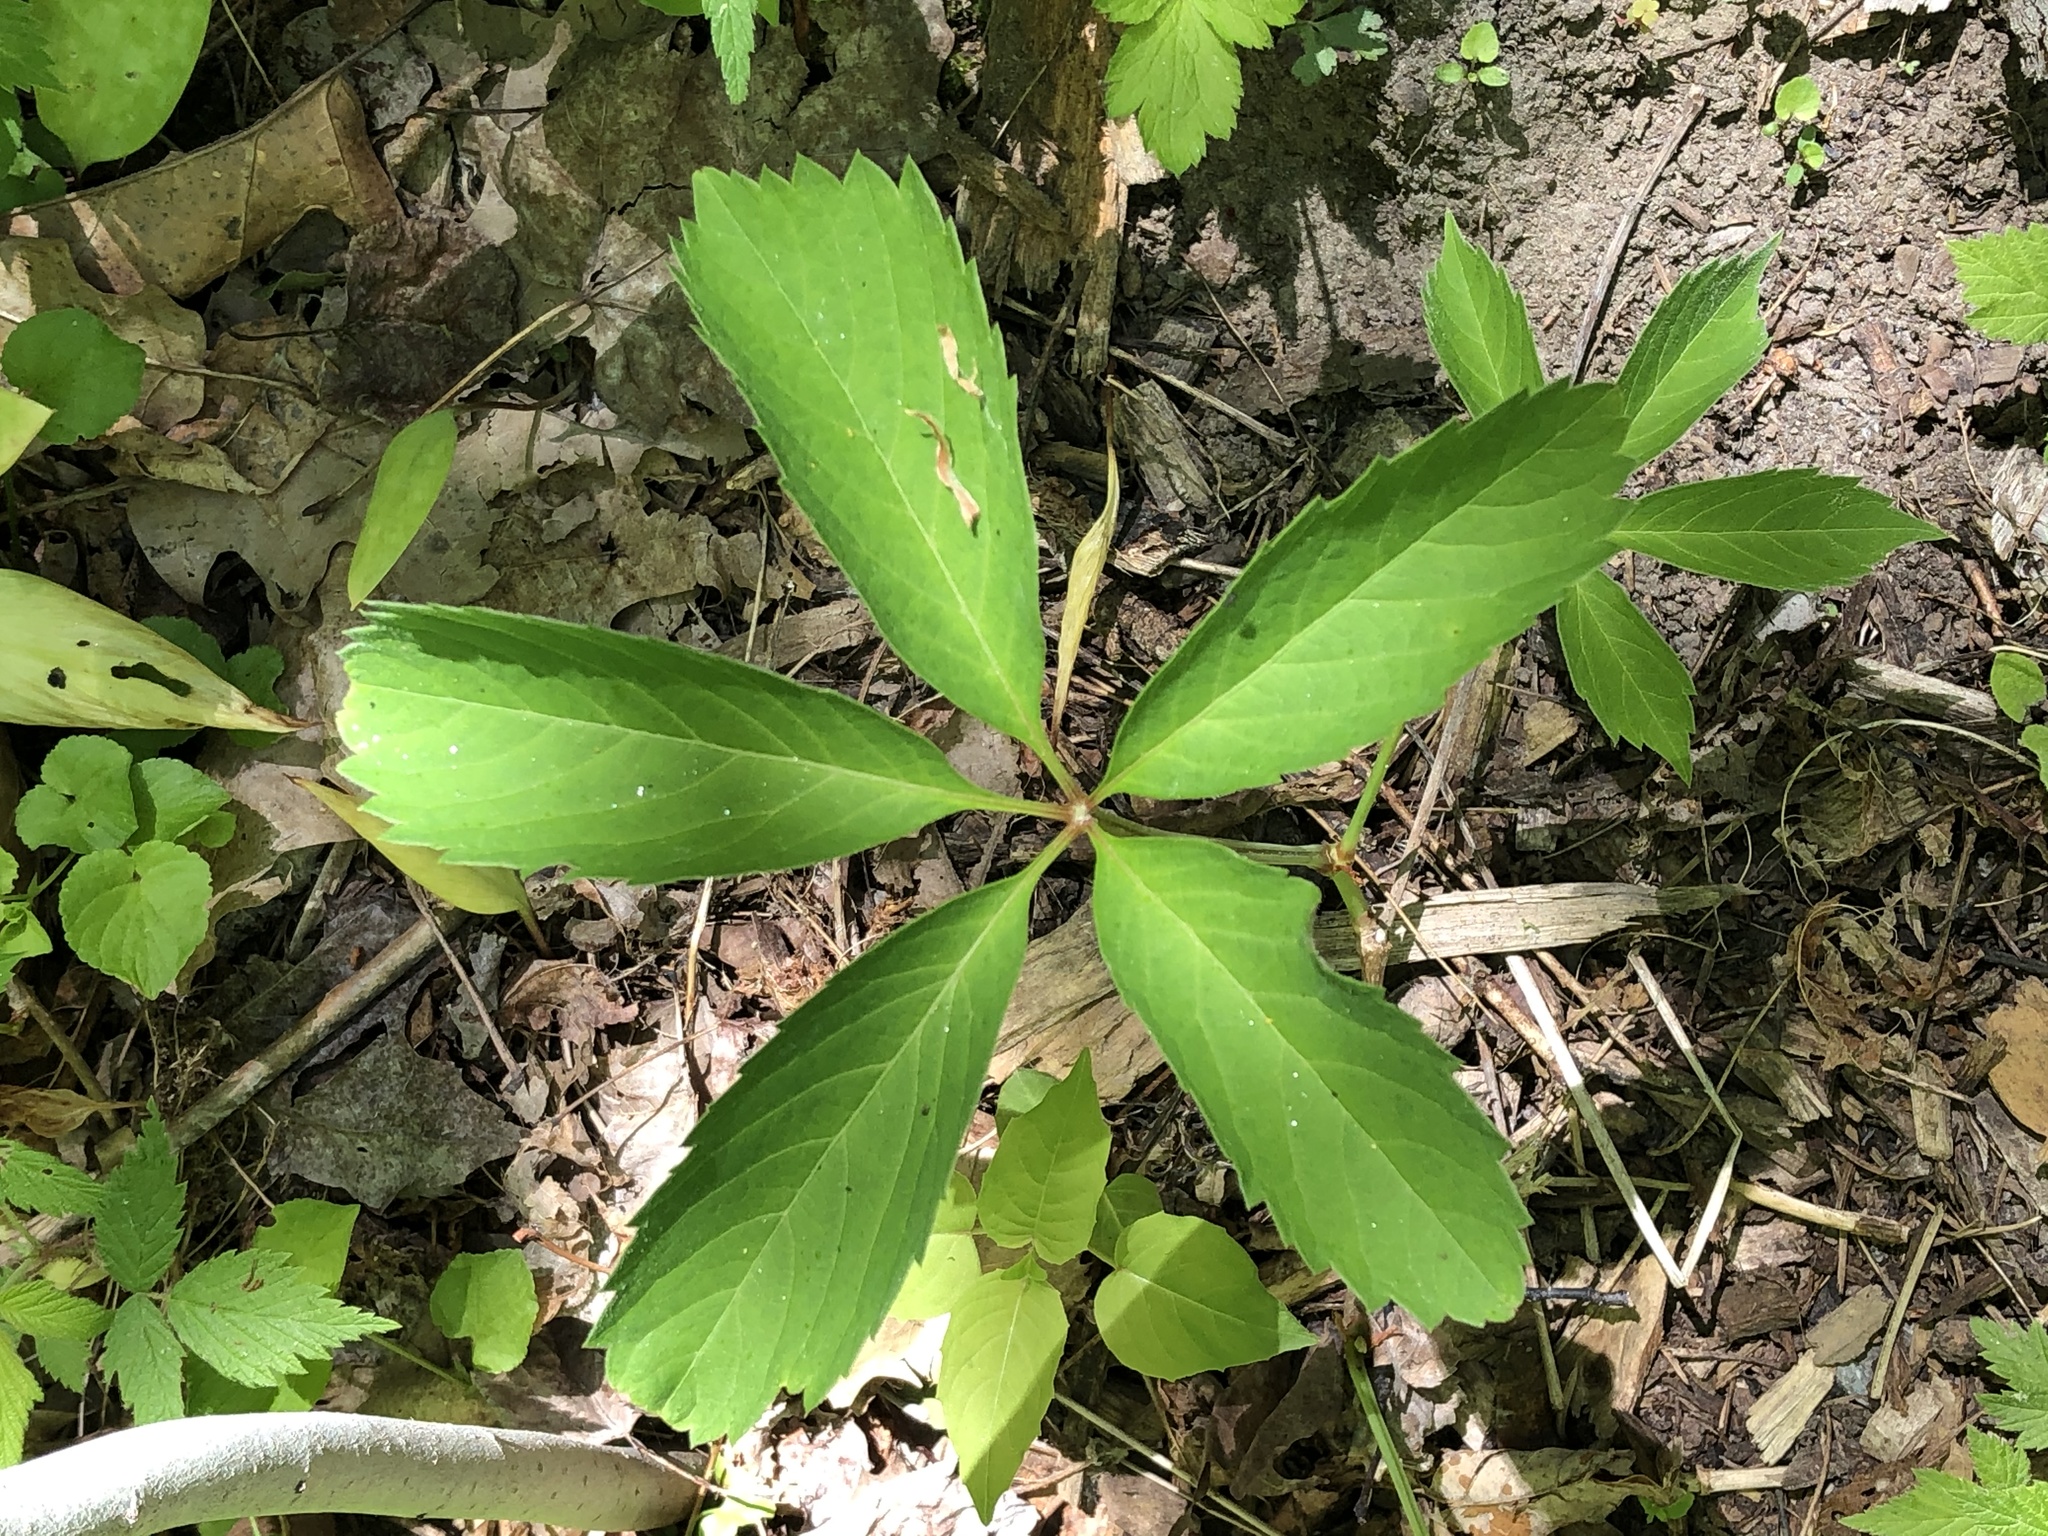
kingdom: Plantae
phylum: Tracheophyta
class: Magnoliopsida
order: Vitales
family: Vitaceae
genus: Parthenocissus
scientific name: Parthenocissus quinquefolia
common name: Virginia-creeper
